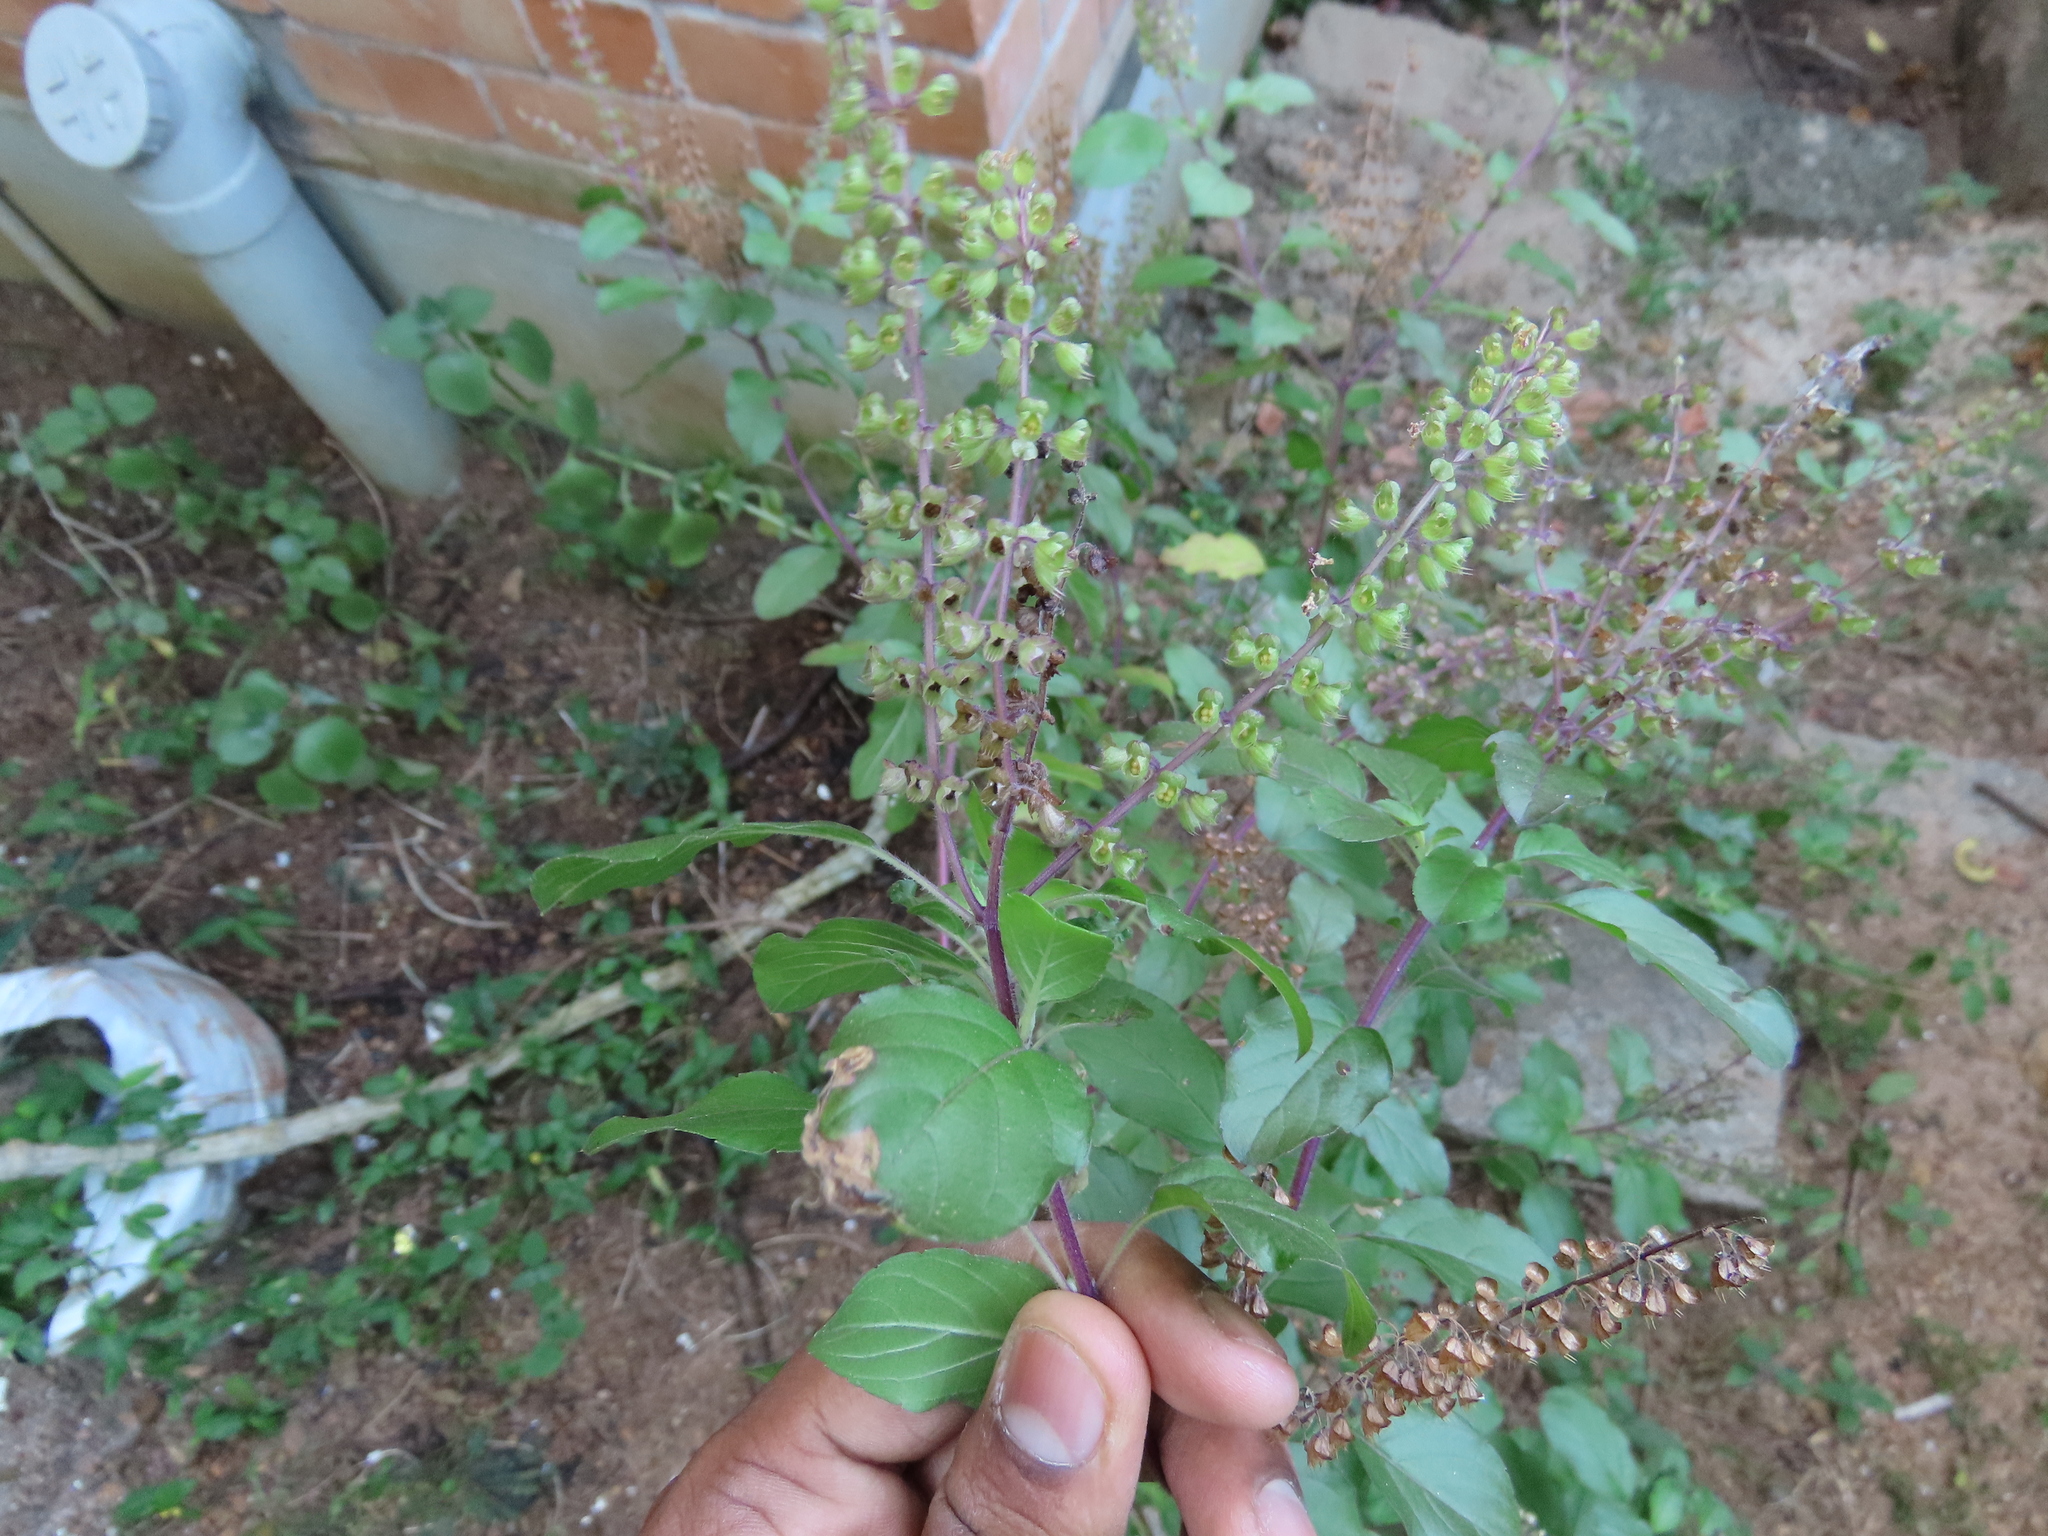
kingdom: Plantae
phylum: Tracheophyta
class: Magnoliopsida
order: Lamiales
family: Lamiaceae
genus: Ocimum
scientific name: Ocimum tenuiflorum
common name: Sacred basil
